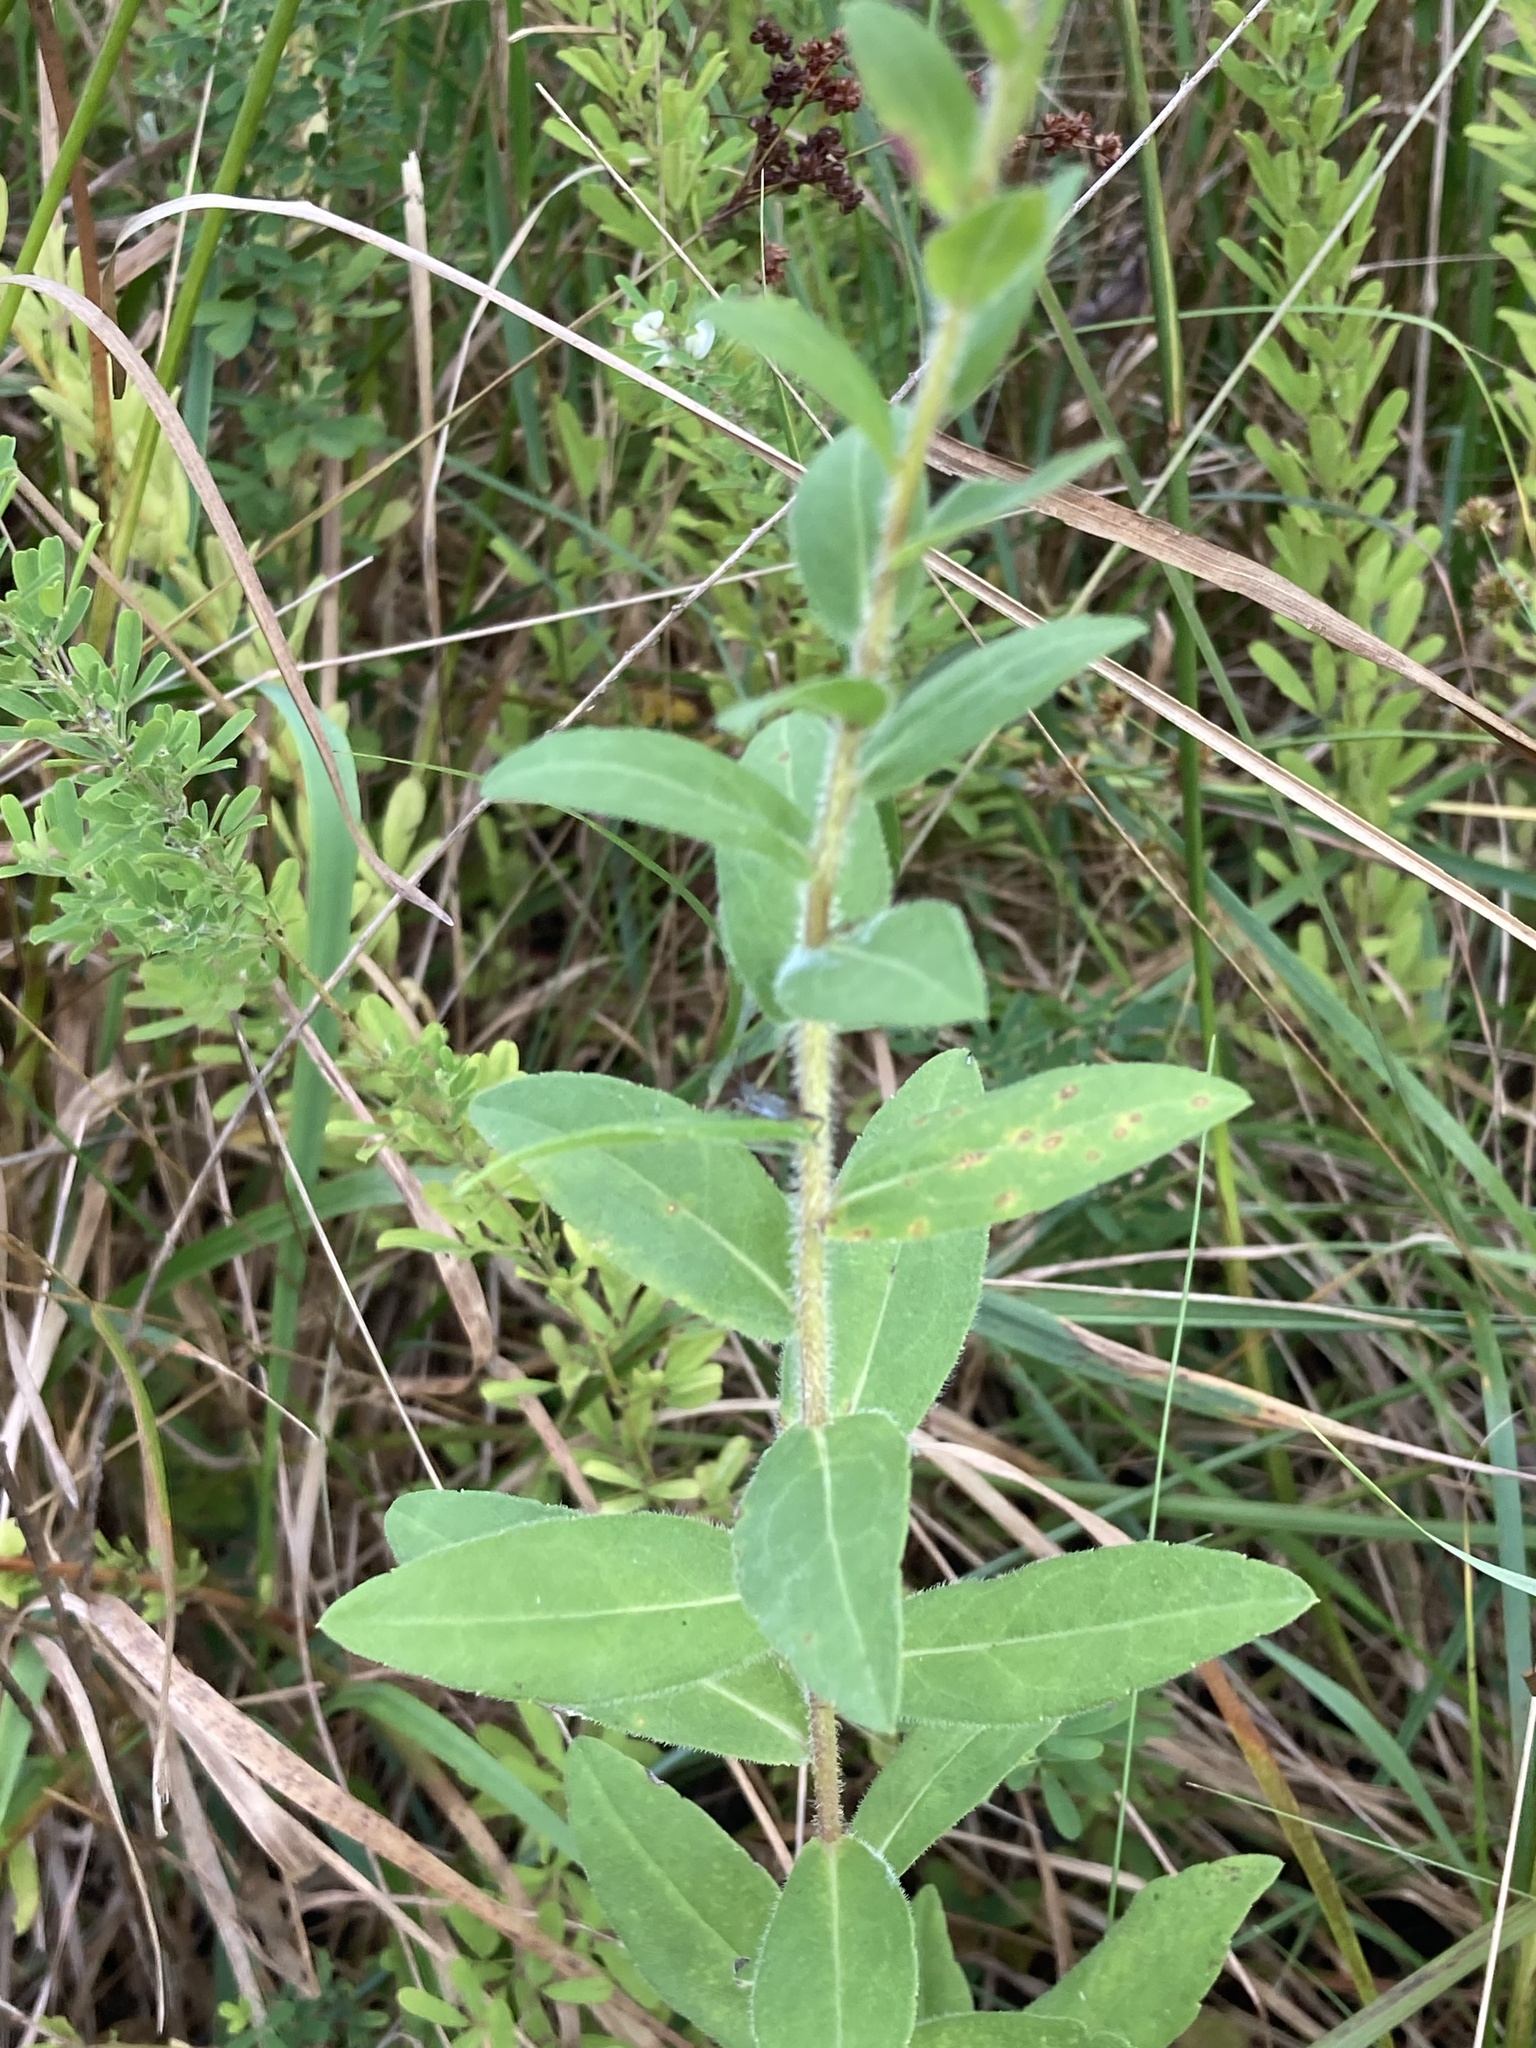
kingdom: Plantae
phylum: Tracheophyta
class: Magnoliopsida
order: Asterales
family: Asteraceae
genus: Solidago
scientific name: Solidago fistulosa
